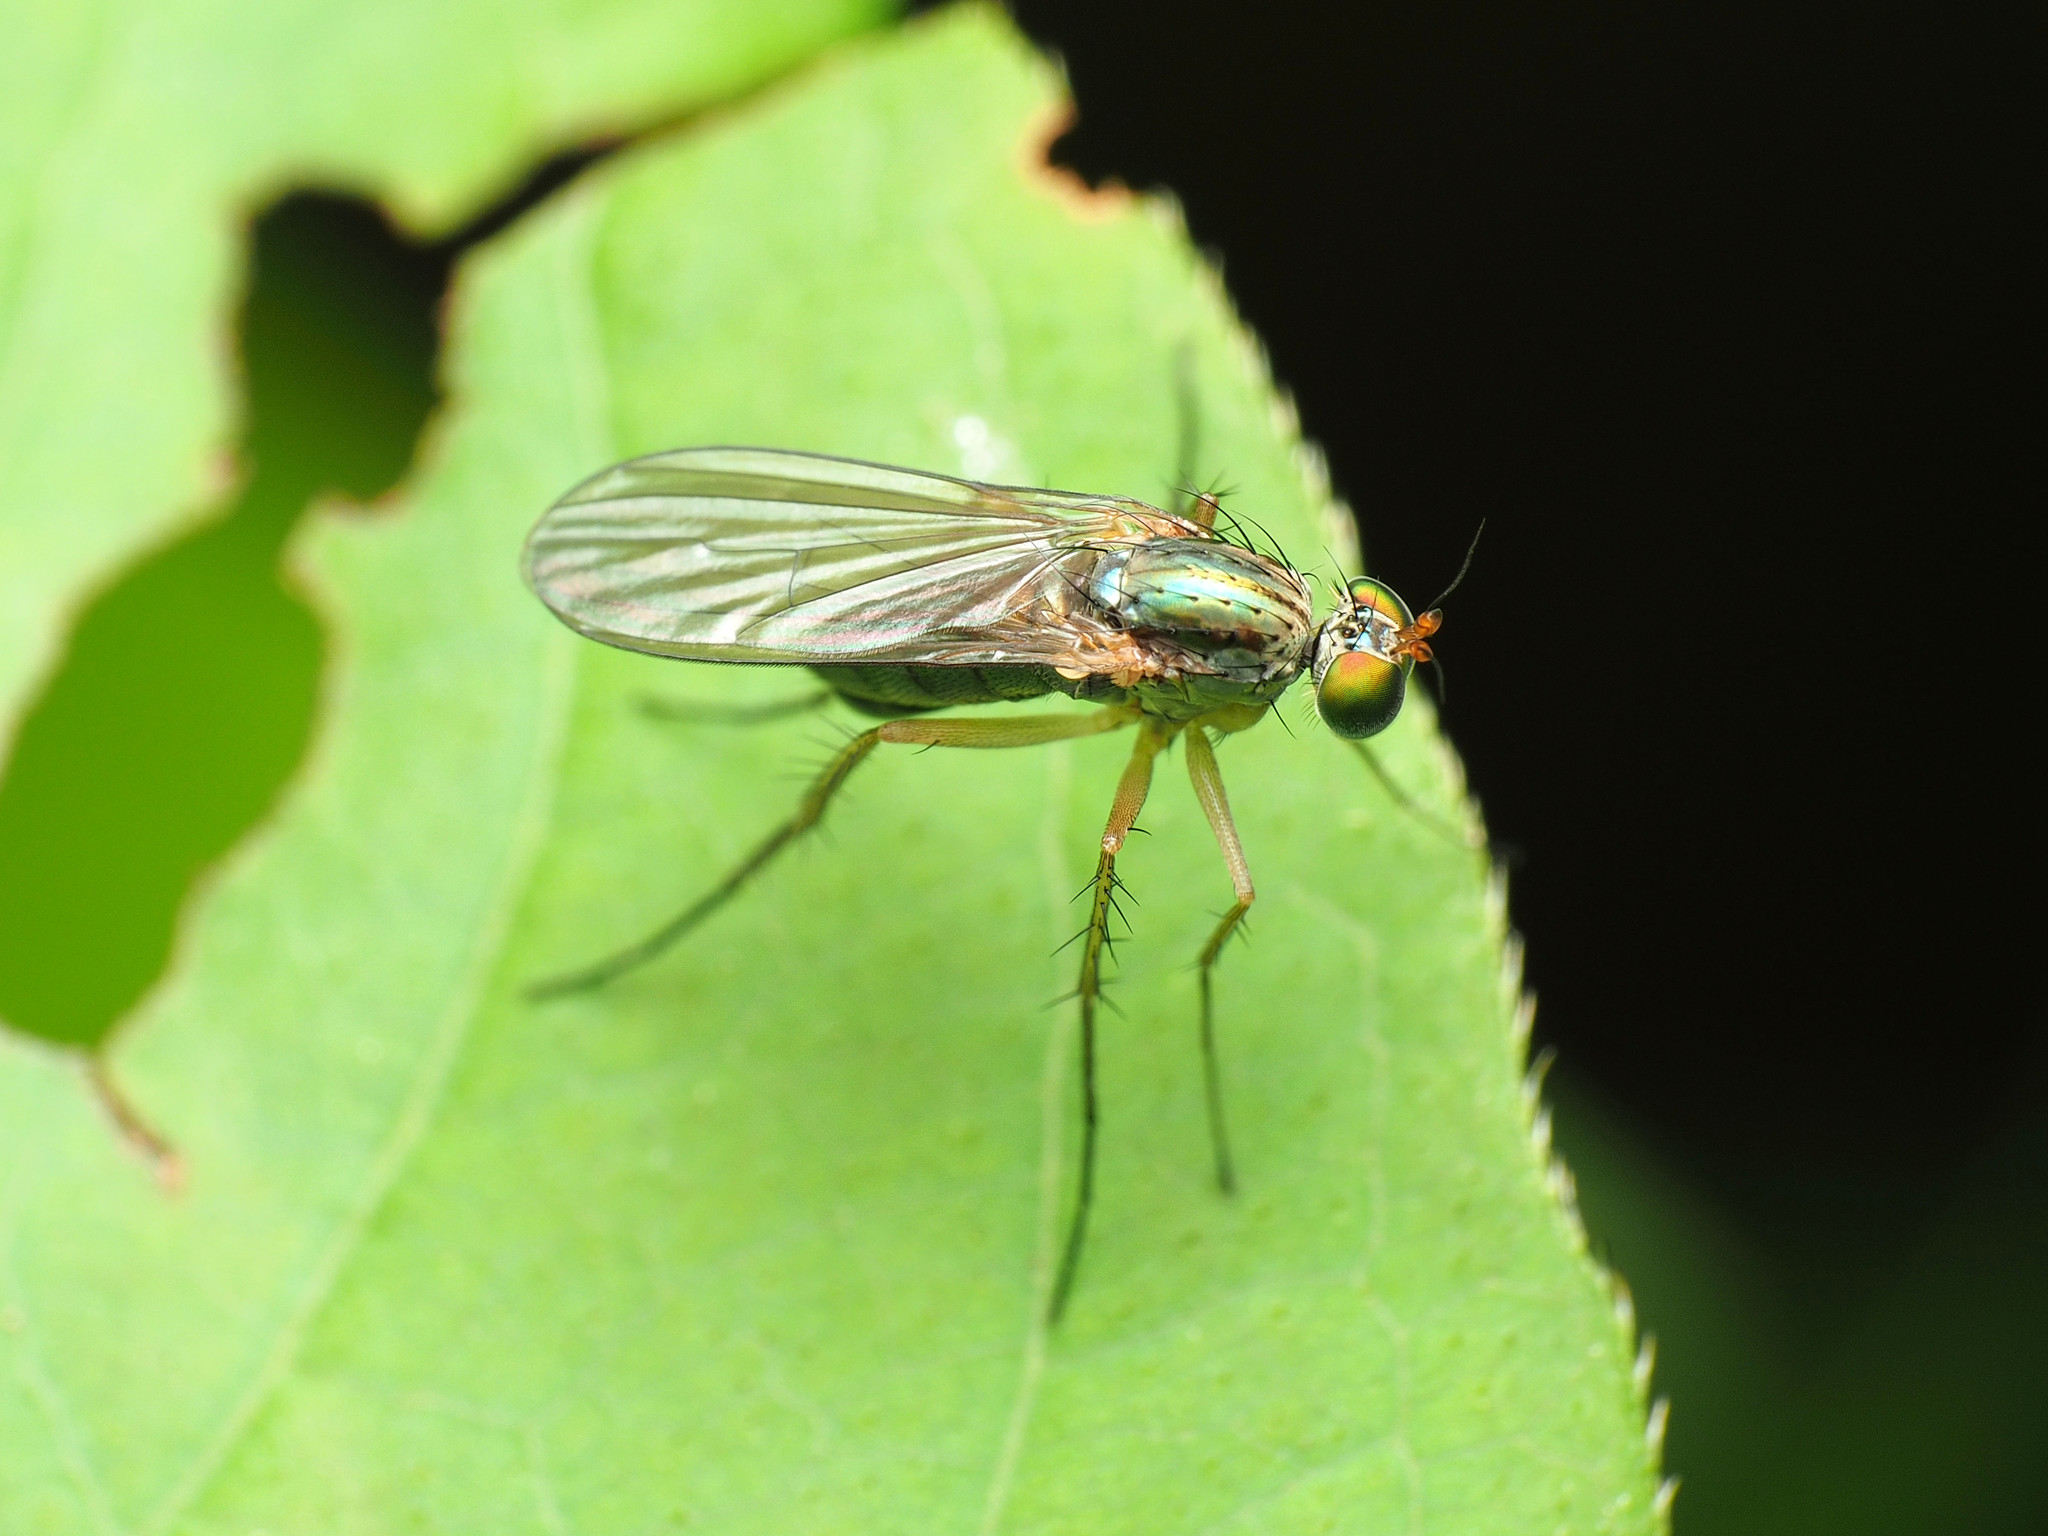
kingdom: Animalia
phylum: Arthropoda
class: Insecta
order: Diptera
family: Dolichopodidae
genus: Dolichopus
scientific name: Dolichopus longipennis
